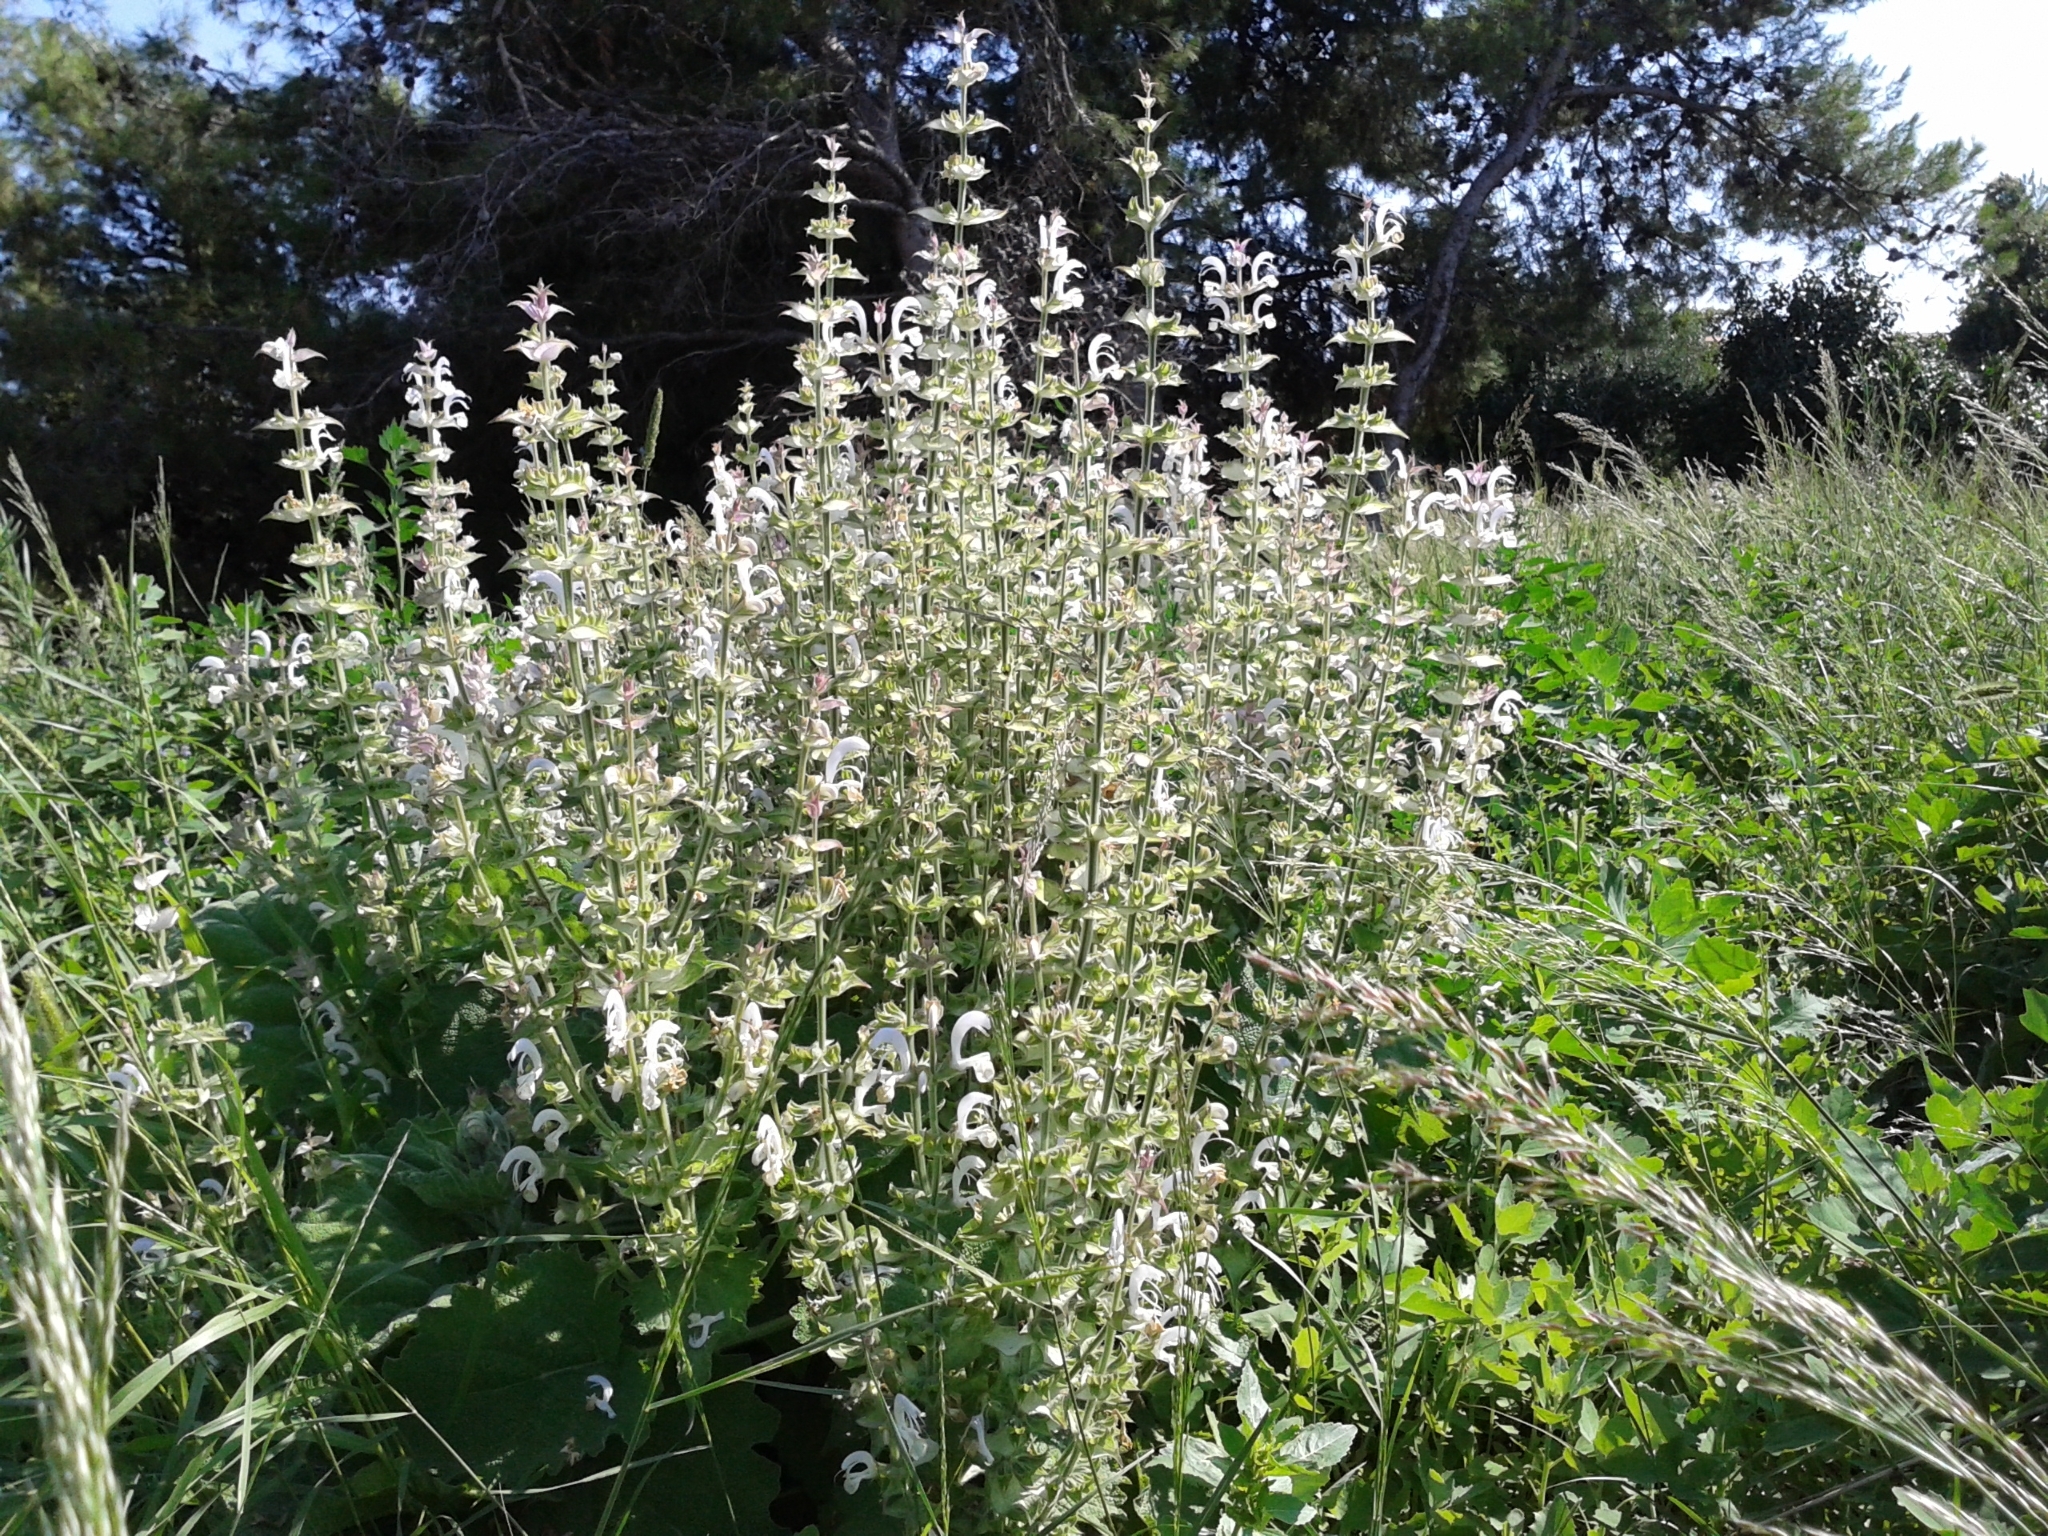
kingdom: Plantae
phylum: Tracheophyta
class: Magnoliopsida
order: Lamiales
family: Lamiaceae
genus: Salvia
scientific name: Salvia sclarea
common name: Clary
